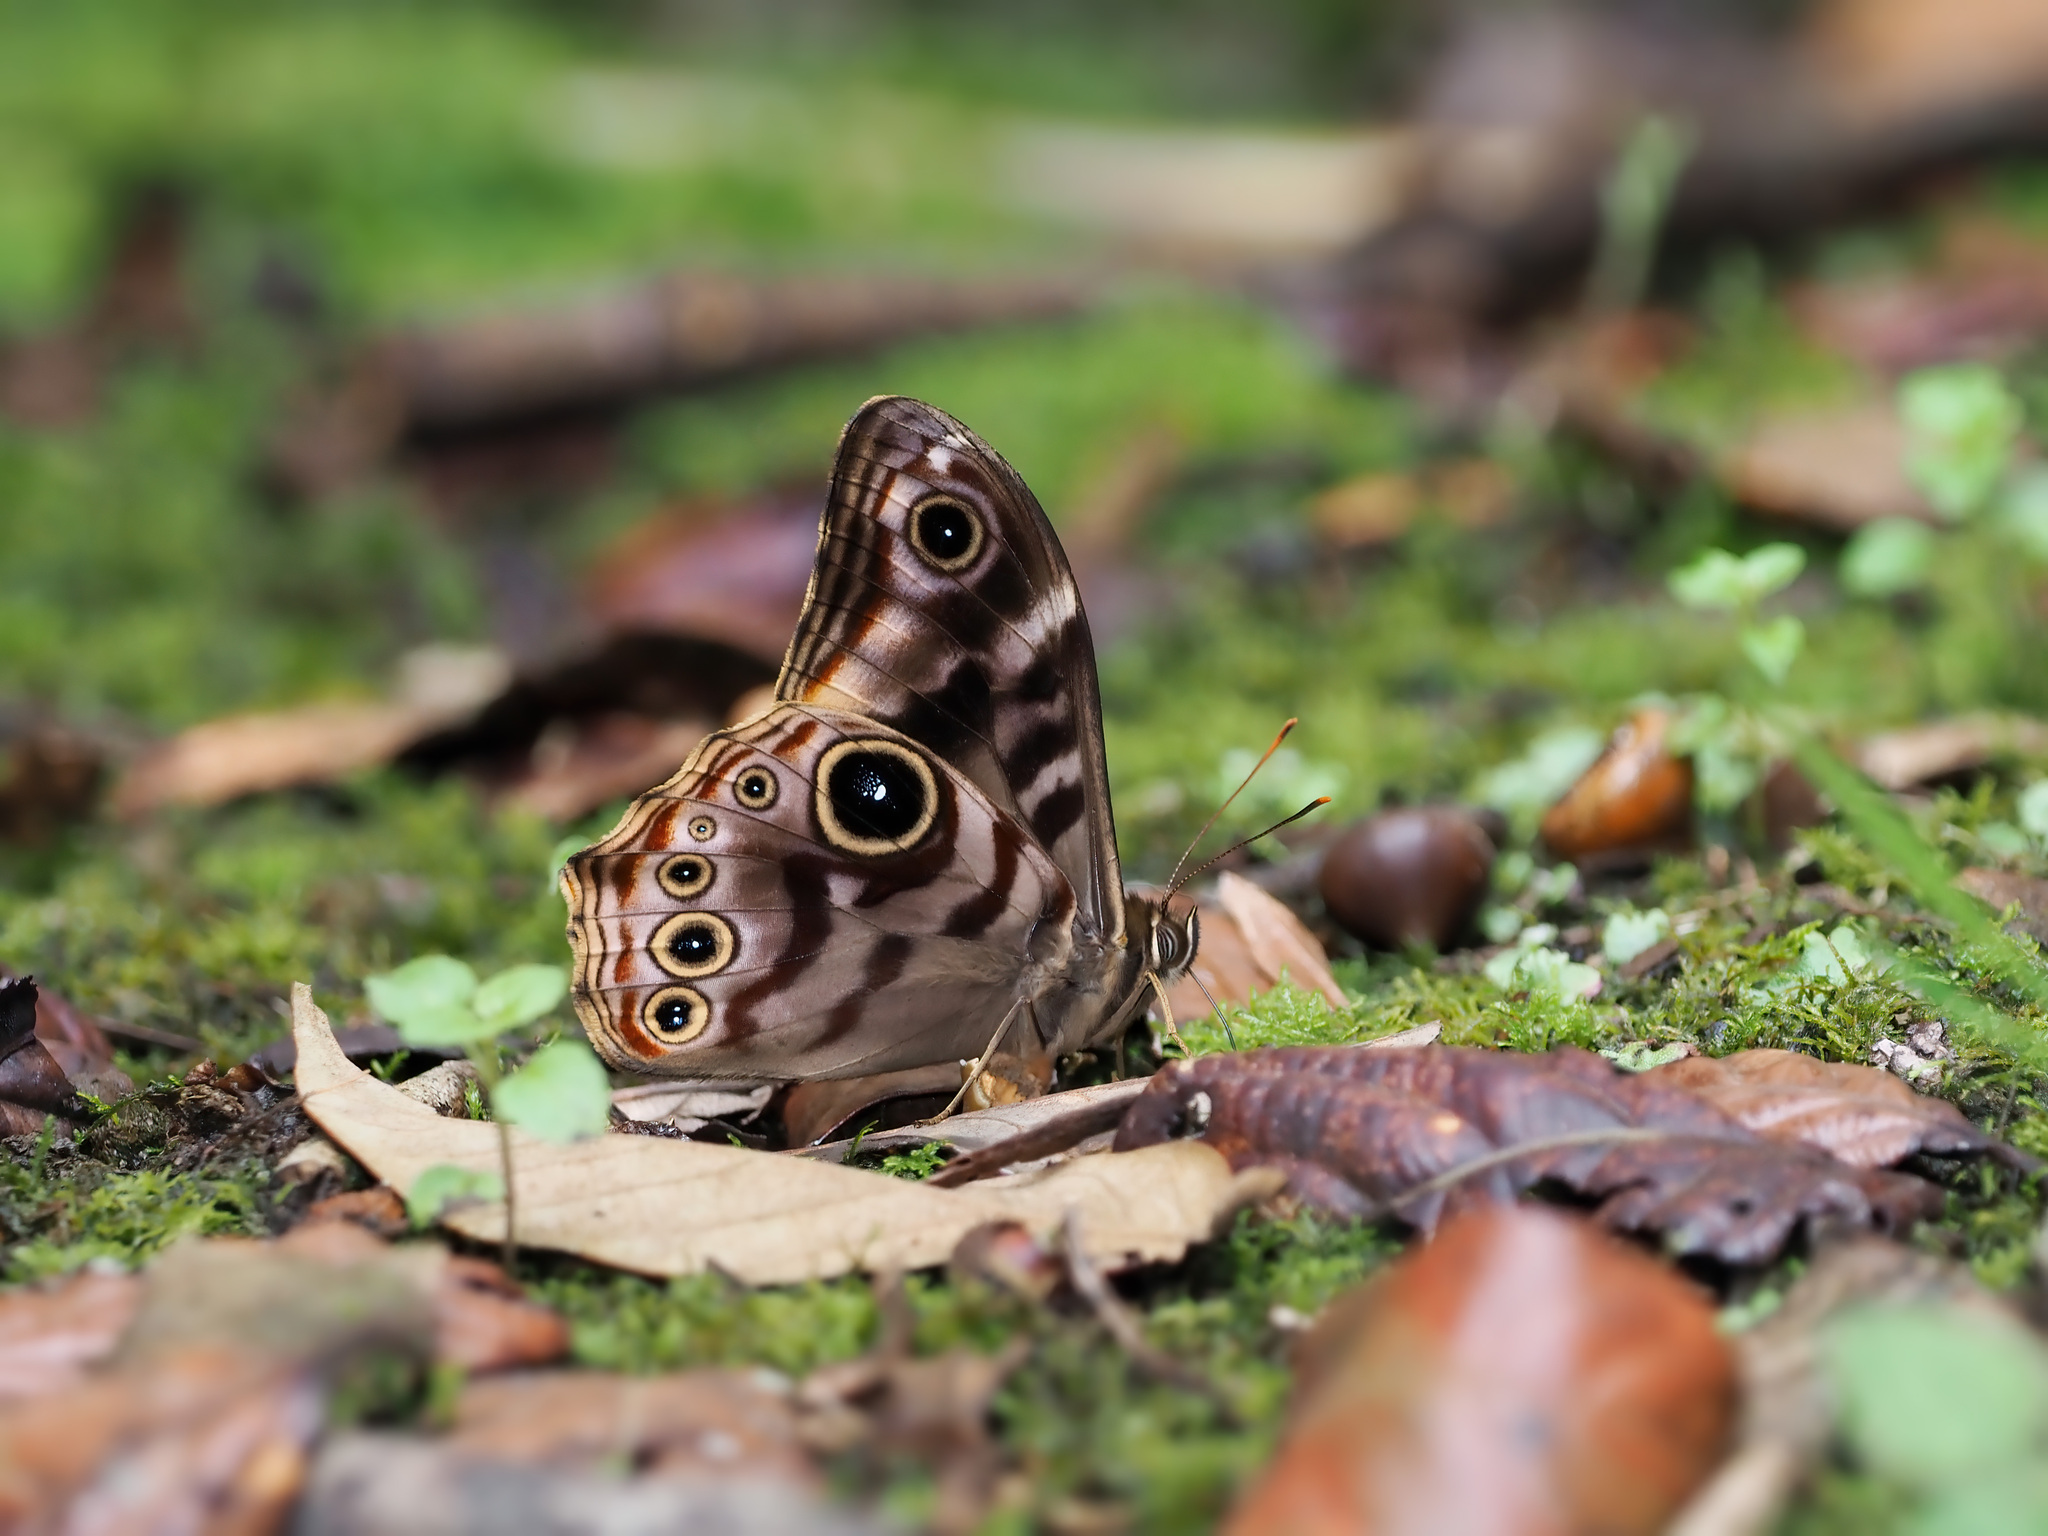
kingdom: Animalia
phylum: Arthropoda
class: Insecta
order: Lepidoptera
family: Nymphalidae
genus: Lethe
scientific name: Lethe darena
